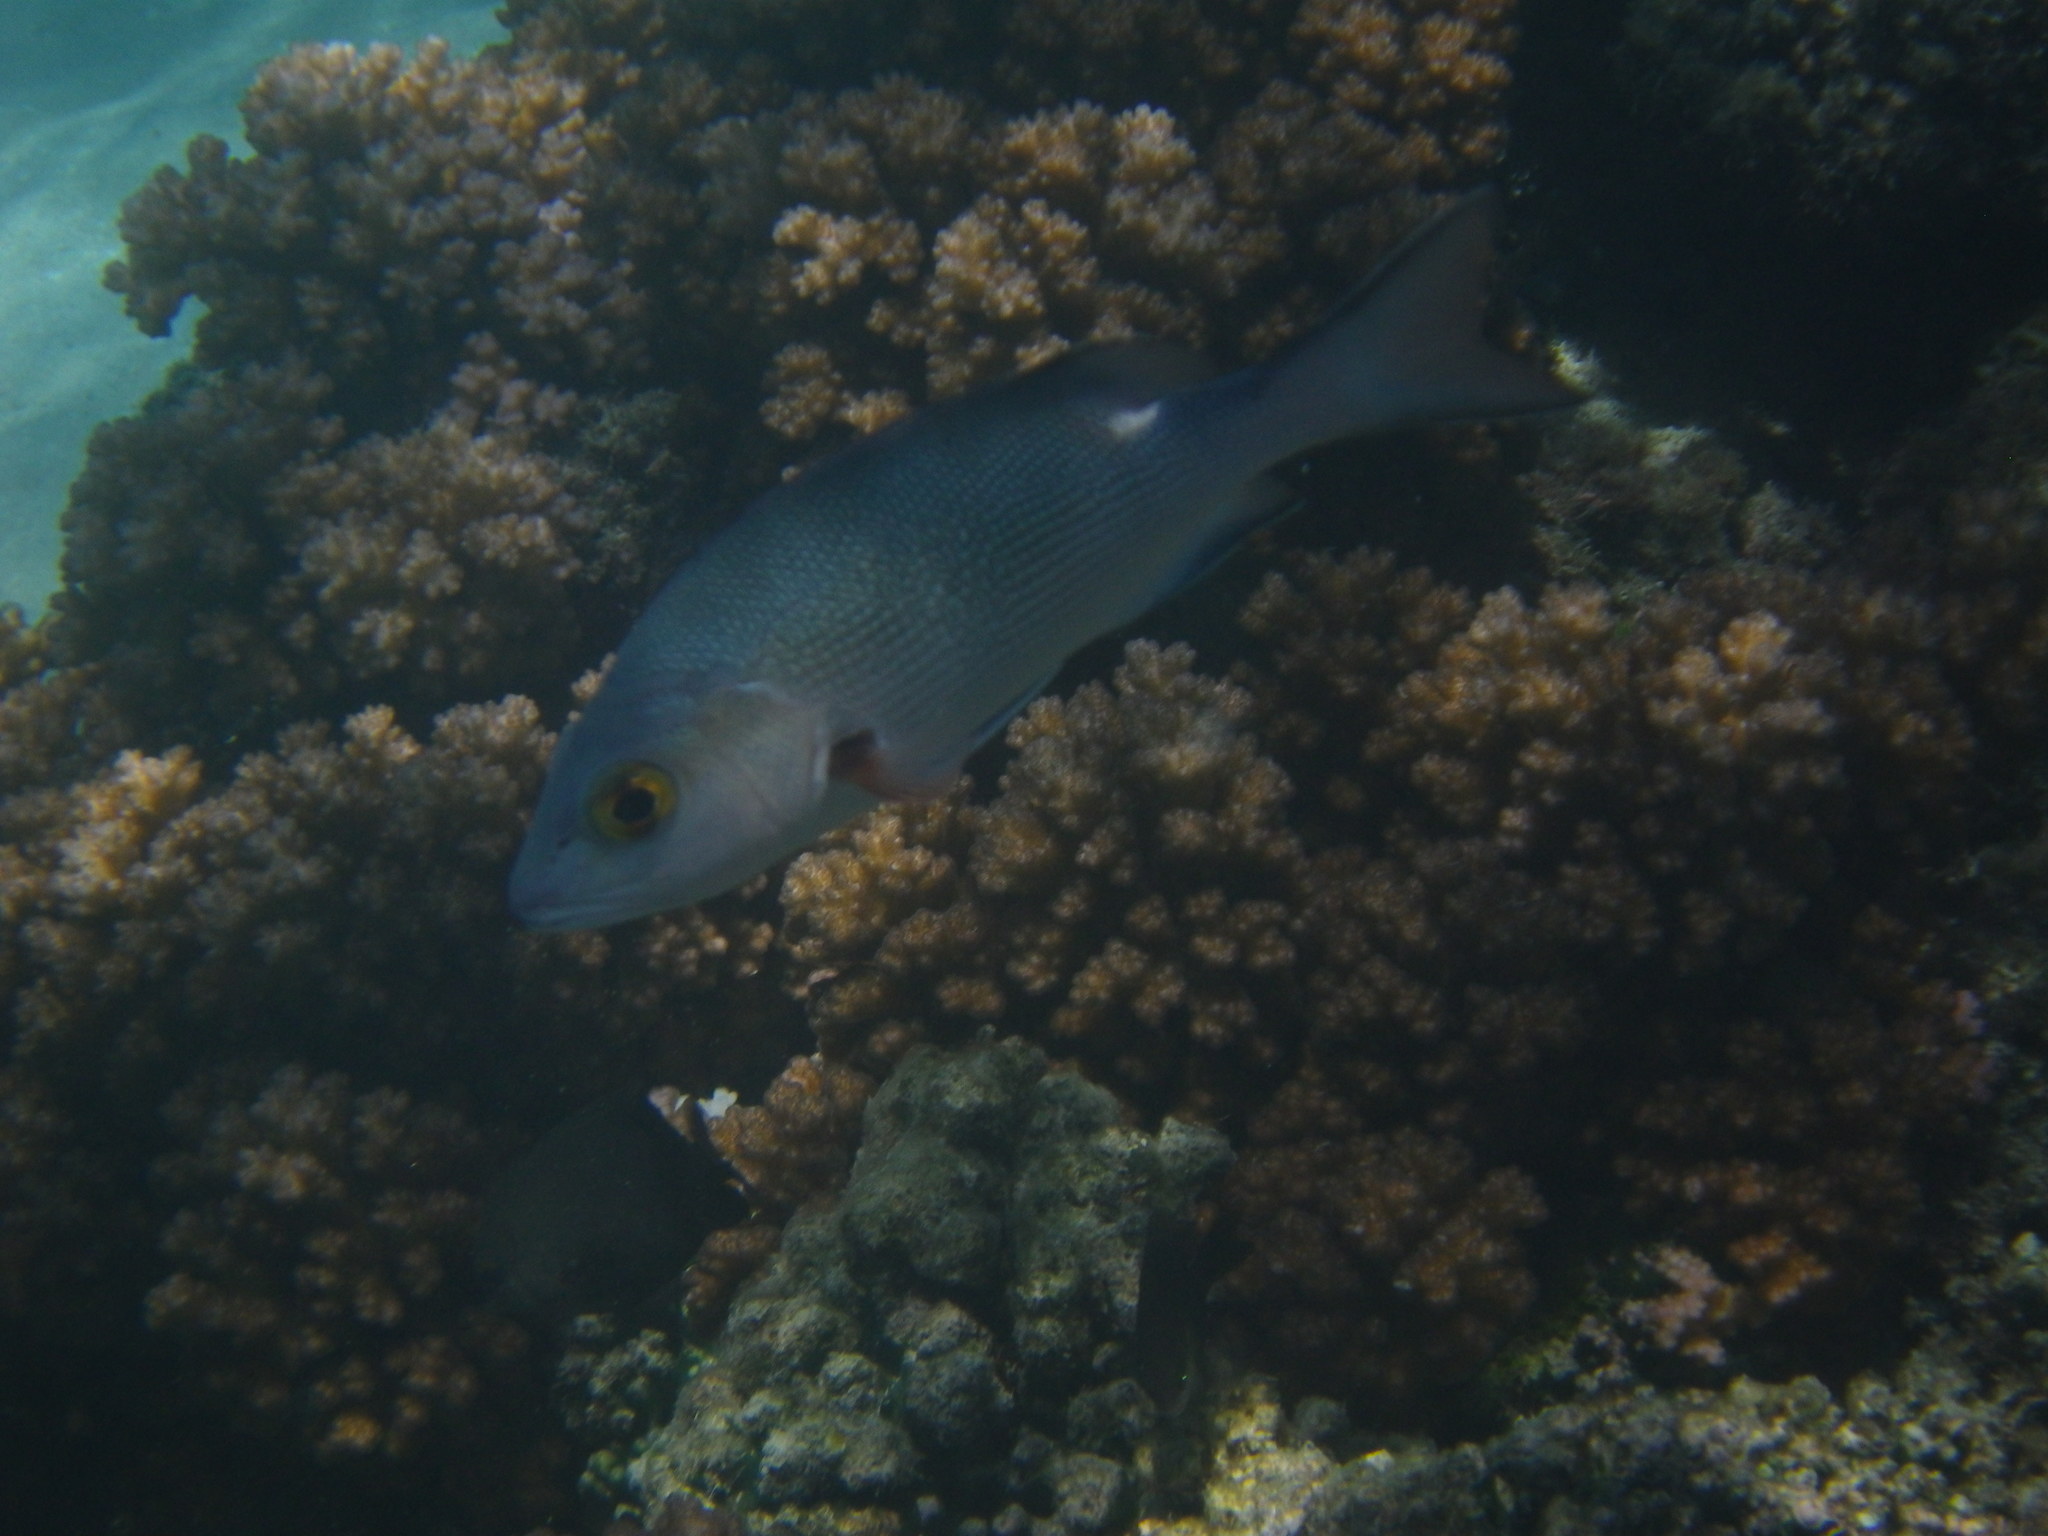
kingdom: Animalia
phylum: Chordata
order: Perciformes
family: Lutjanidae
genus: Lutjanus
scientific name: Lutjanus bohar
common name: Red bass
